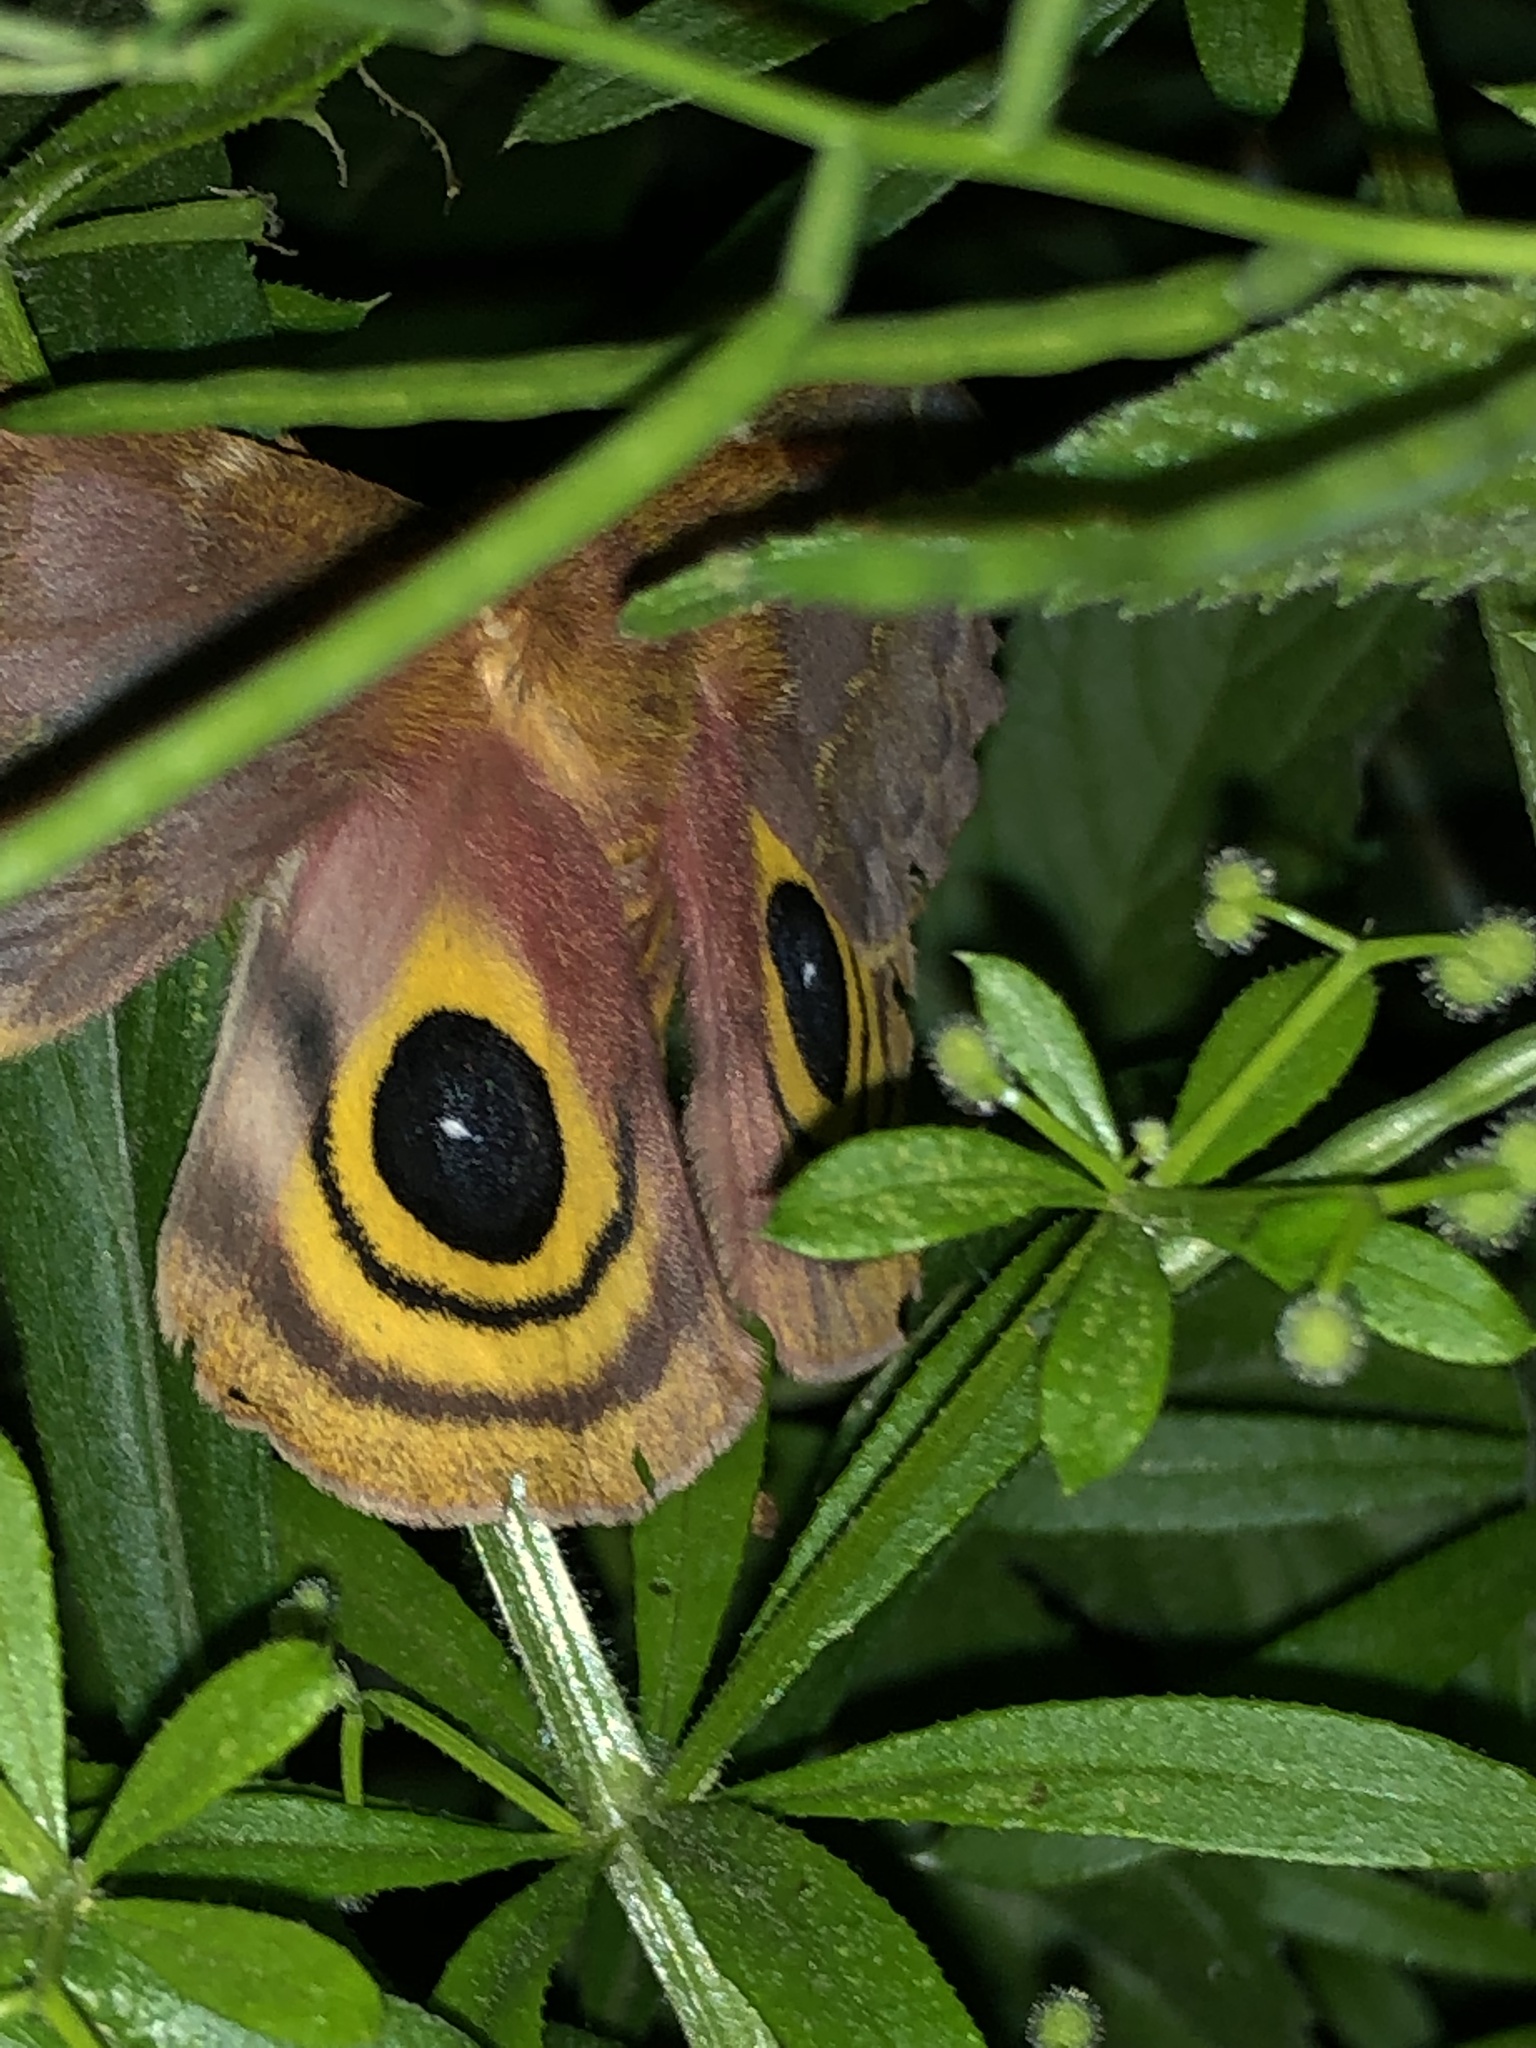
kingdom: Animalia
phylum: Arthropoda
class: Insecta
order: Lepidoptera
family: Saturniidae
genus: Automeris
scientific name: Automeris io
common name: Io moth
